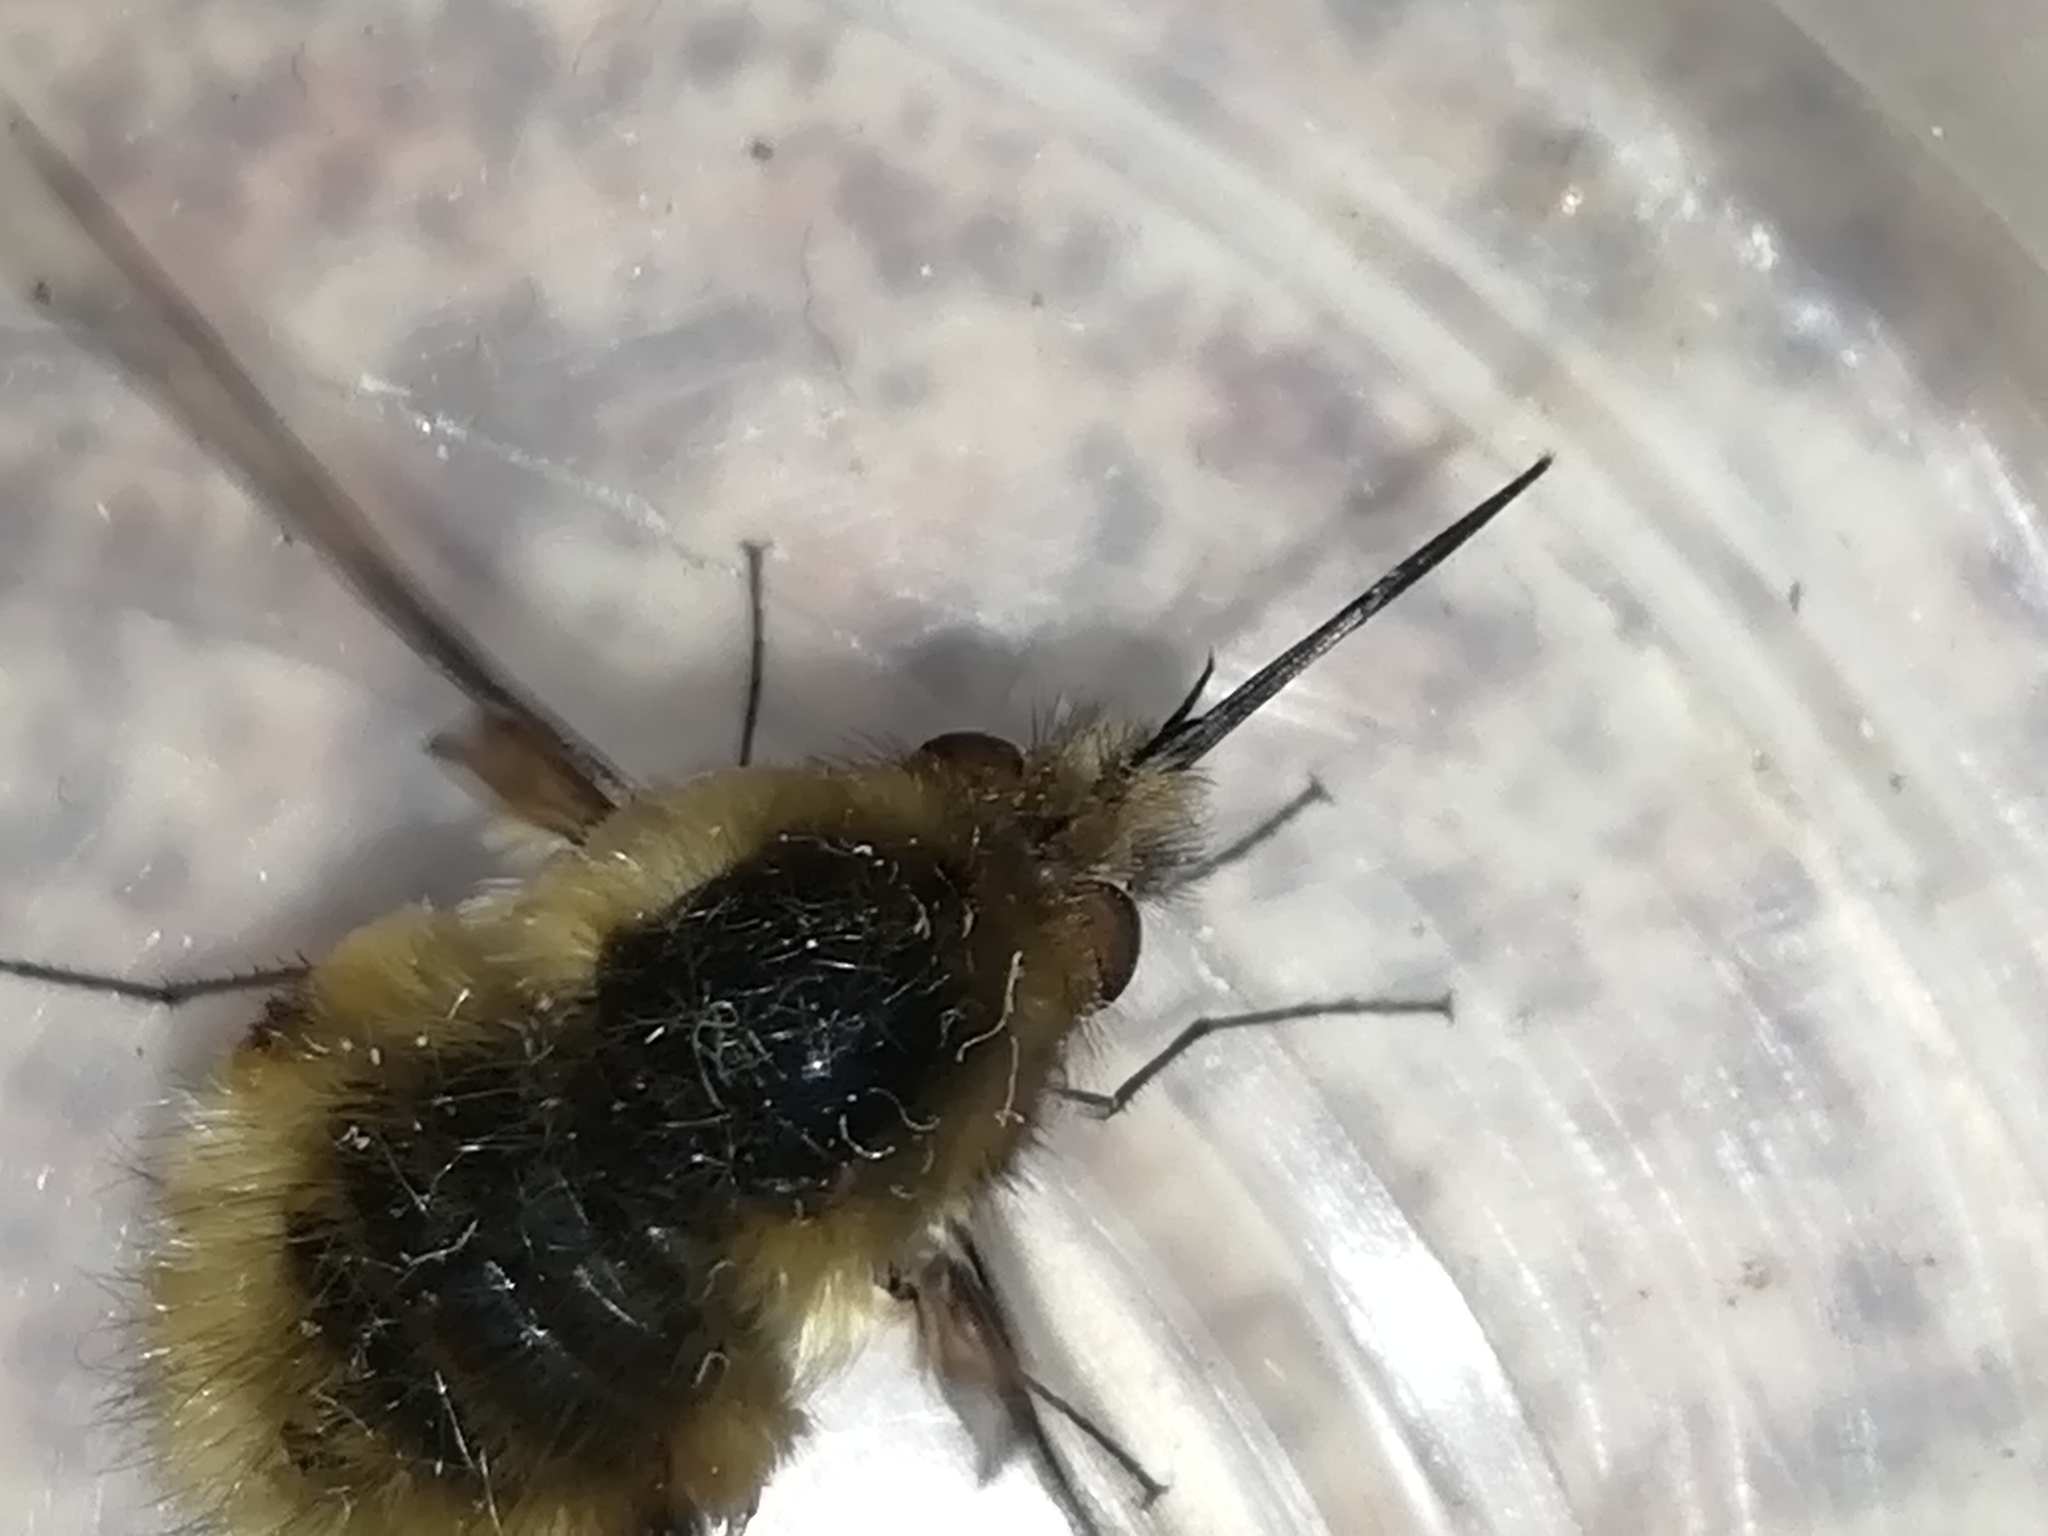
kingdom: Animalia
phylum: Arthropoda
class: Insecta
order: Diptera
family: Bombyliidae
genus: Bombylius
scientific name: Bombylius major
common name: Bee fly
